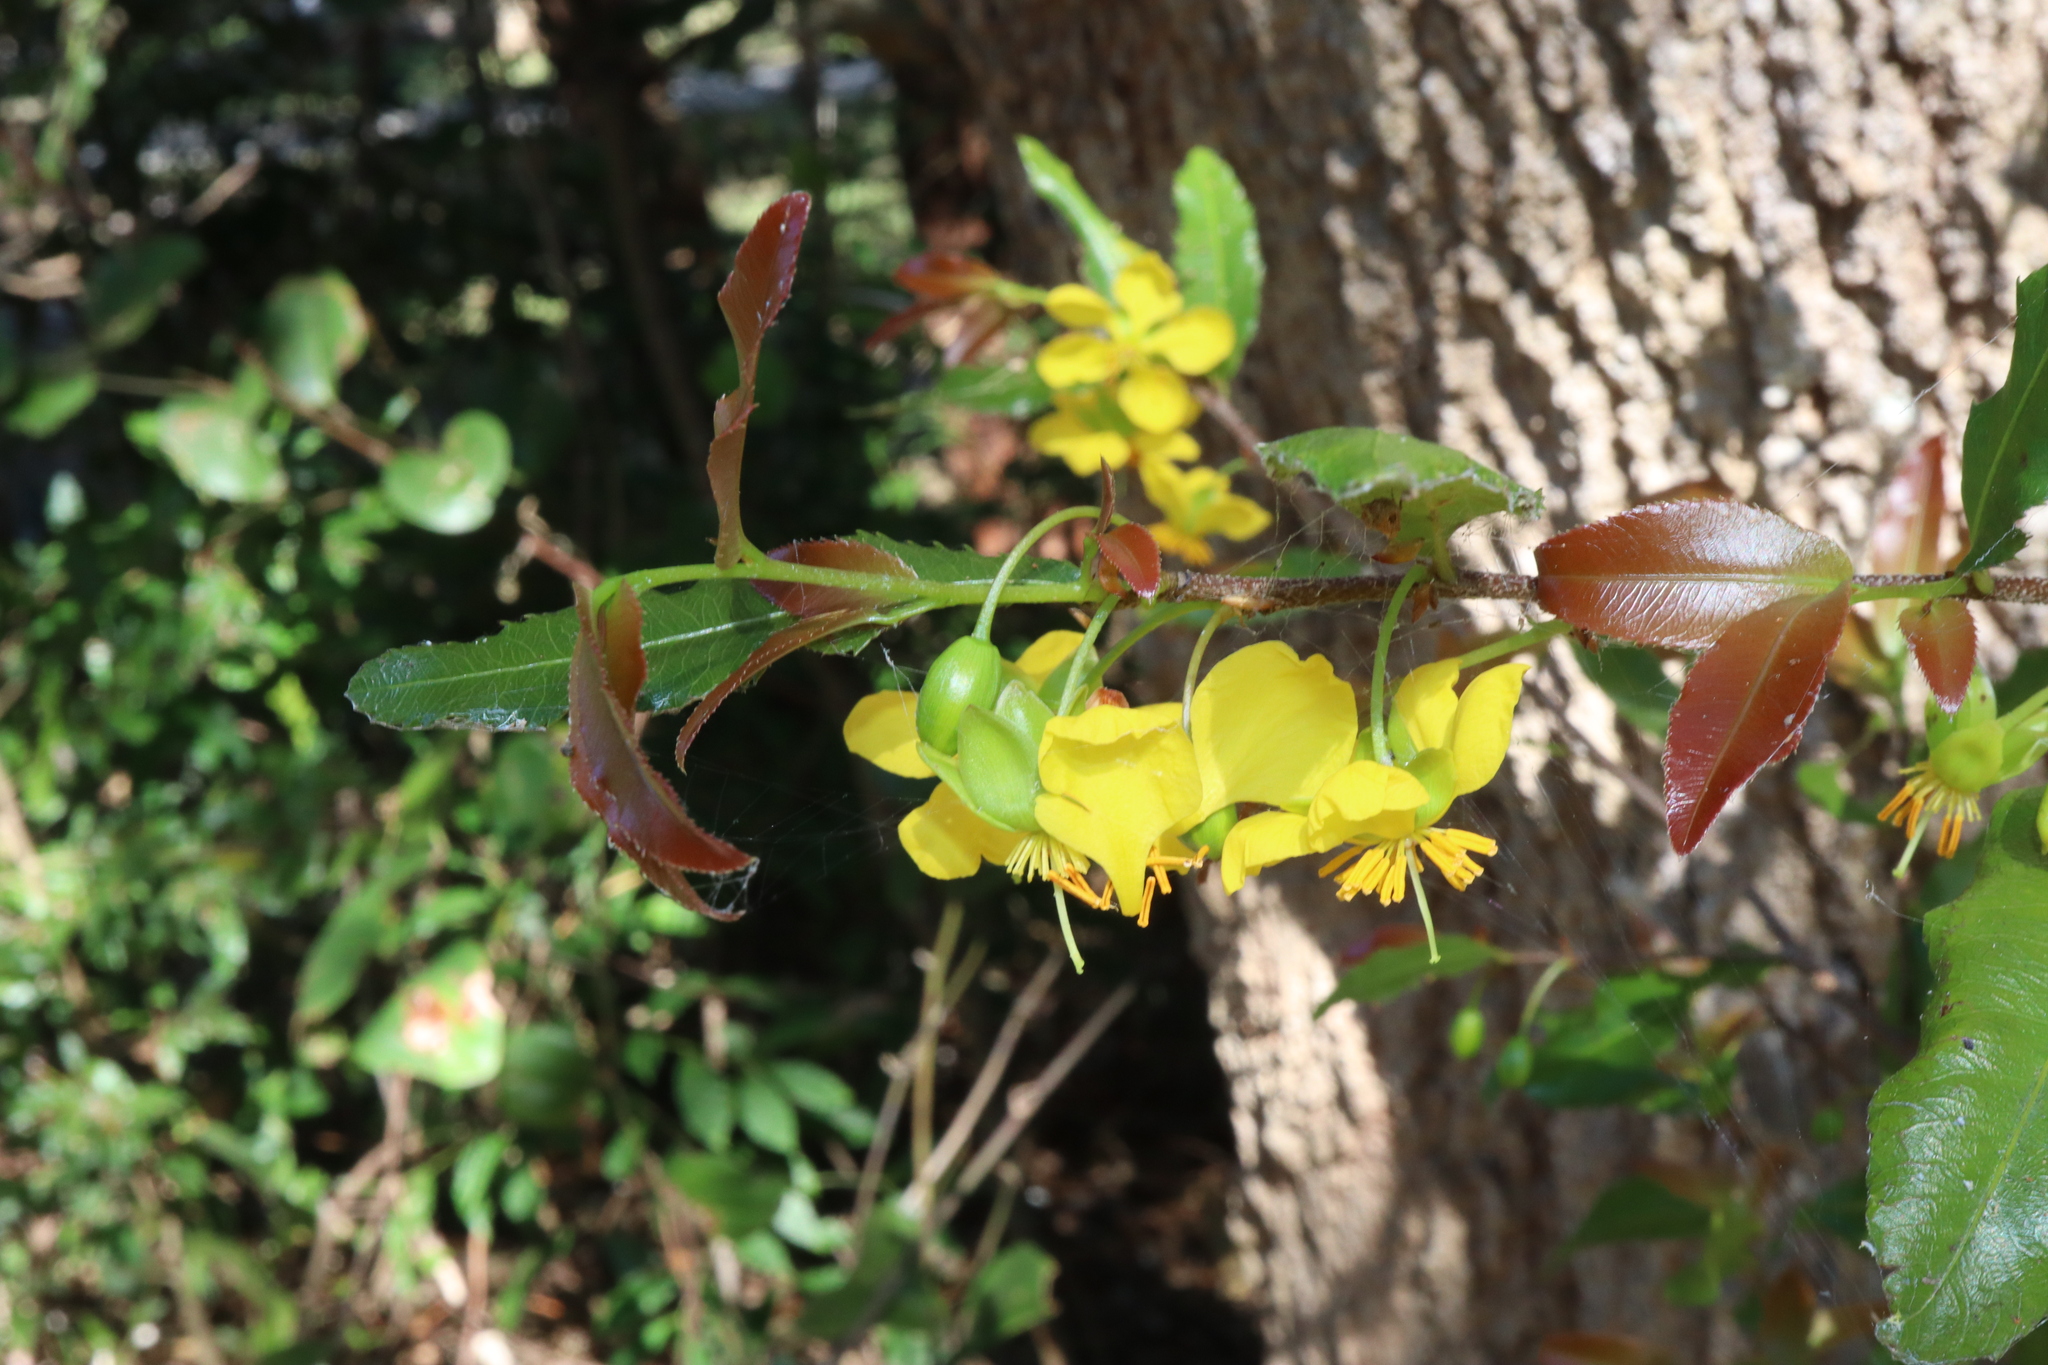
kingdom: Plantae
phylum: Tracheophyta
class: Magnoliopsida
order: Malpighiales
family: Ochnaceae
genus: Ochna
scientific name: Ochna serrulata
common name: Mickey mouse plant
